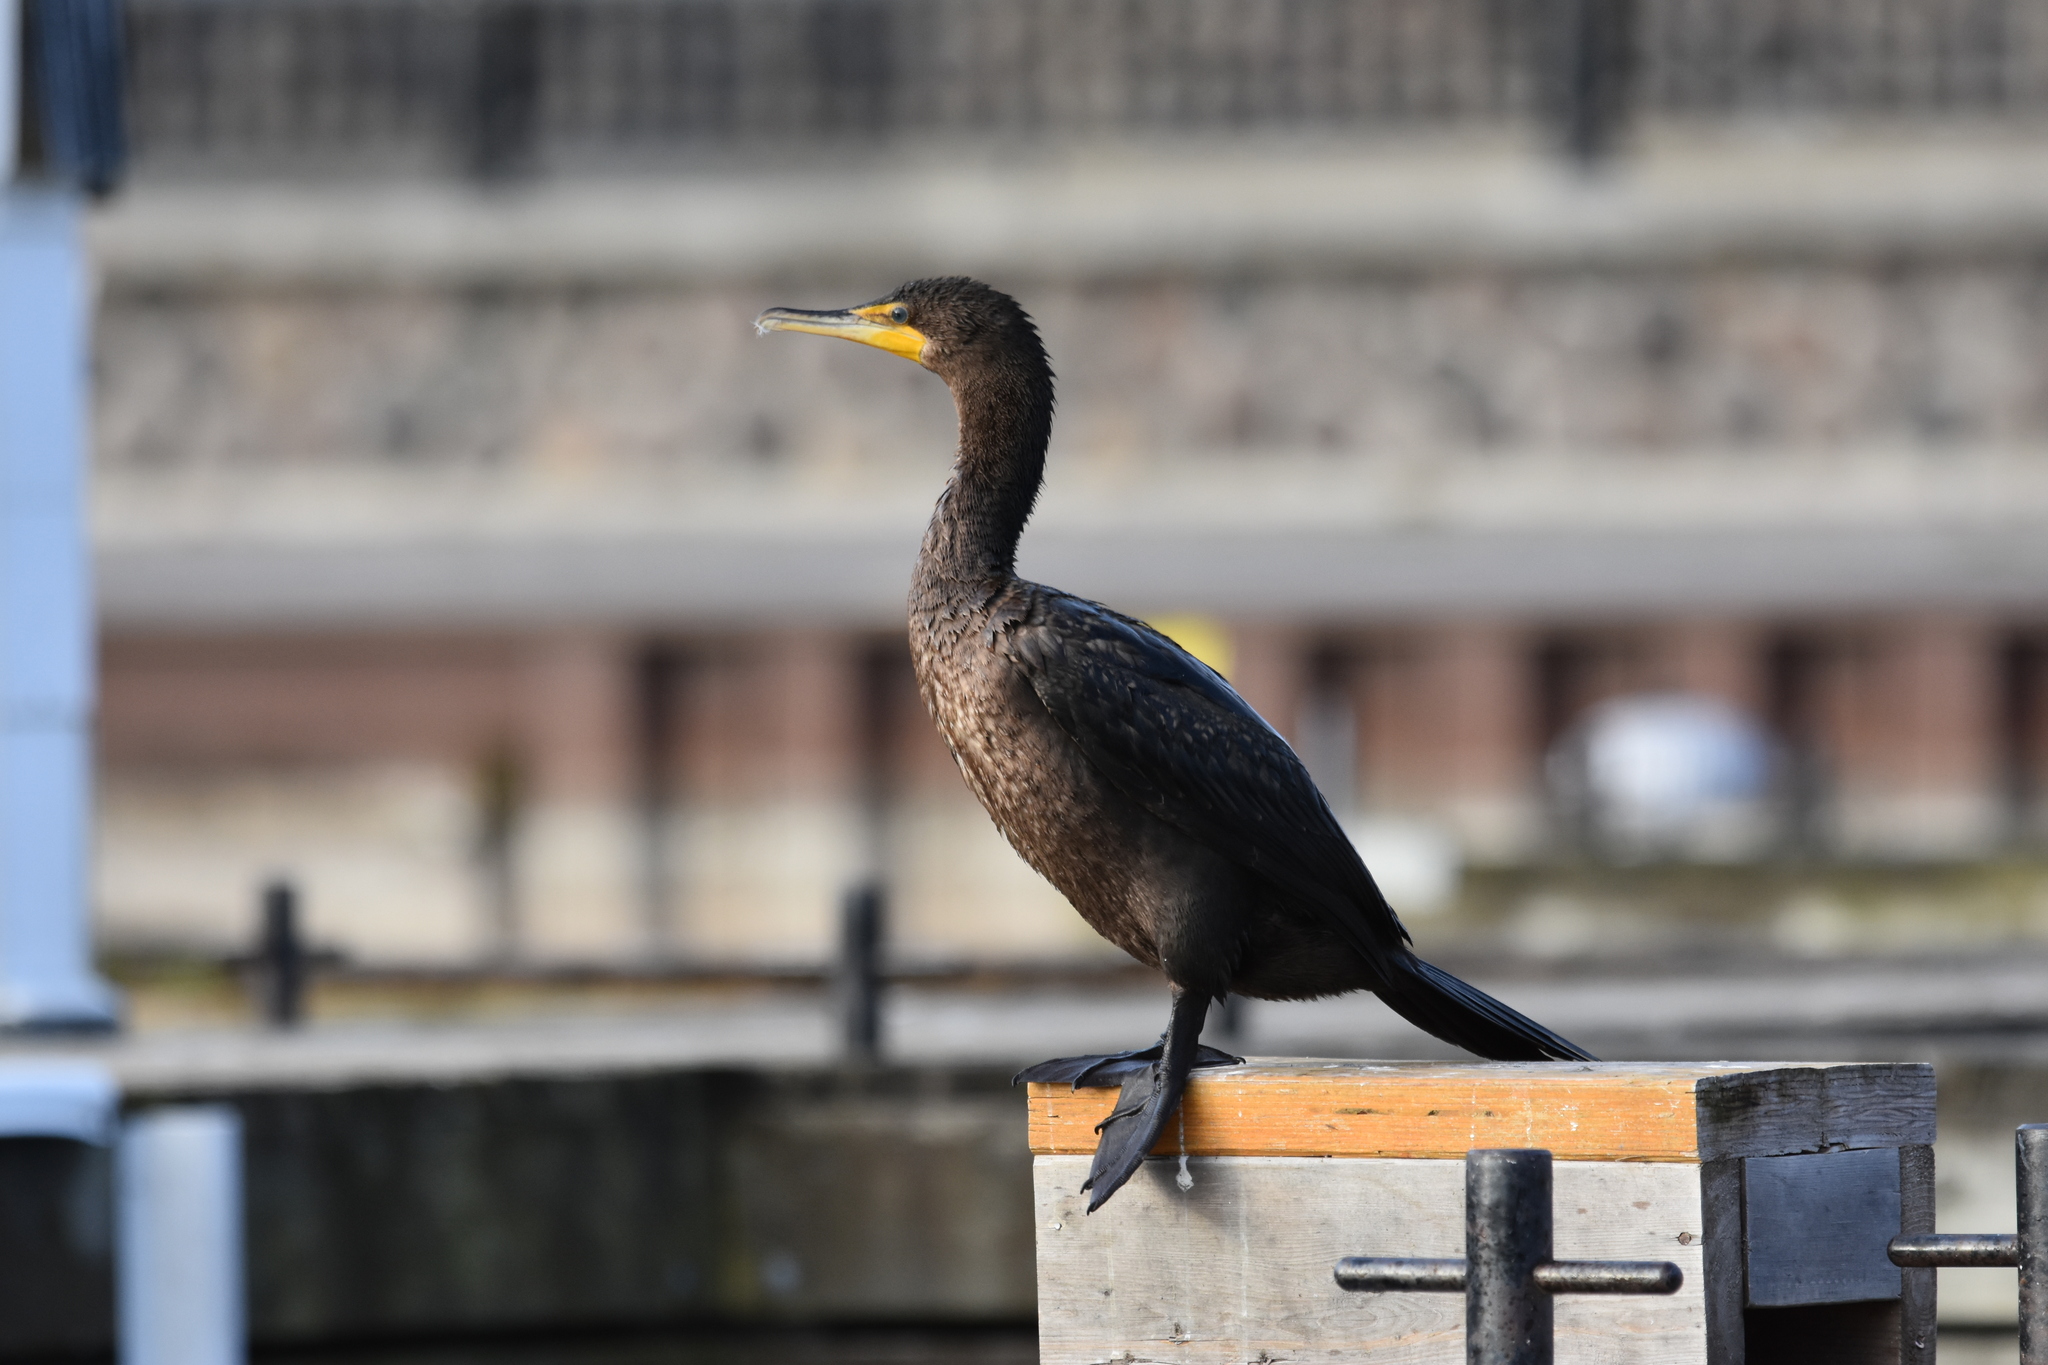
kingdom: Animalia
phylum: Chordata
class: Aves
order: Suliformes
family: Phalacrocoracidae
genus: Phalacrocorax
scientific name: Phalacrocorax auritus
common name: Double-crested cormorant
